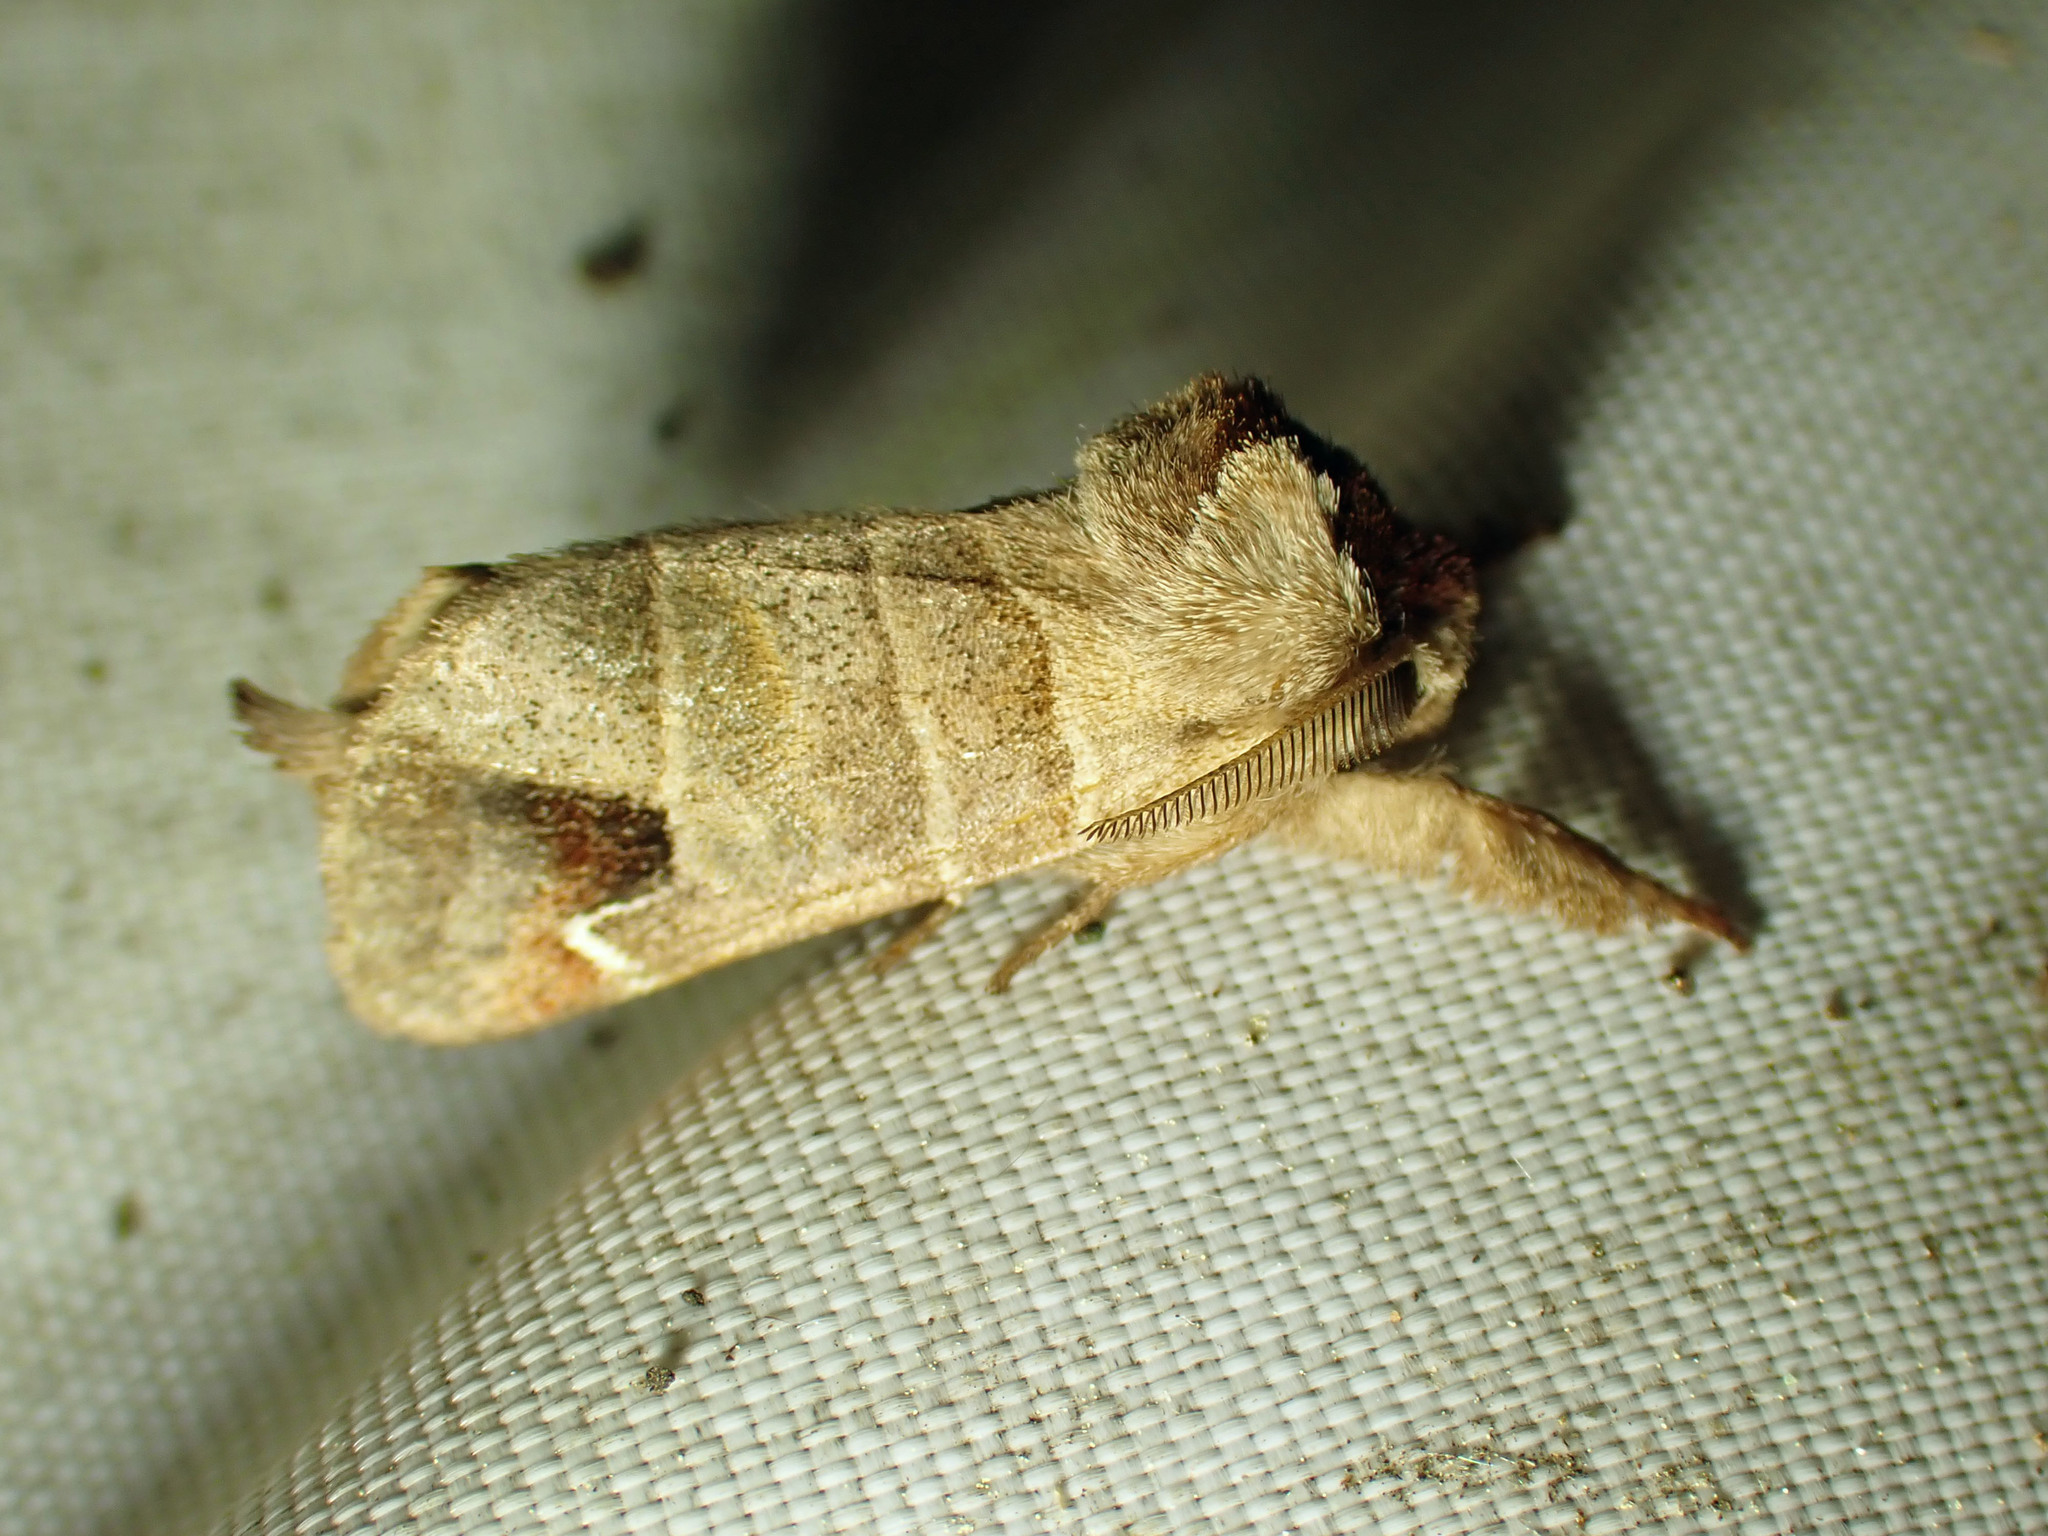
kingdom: Animalia
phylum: Arthropoda
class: Insecta
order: Lepidoptera
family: Notodontidae
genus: Clostera
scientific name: Clostera albosigma
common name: Sigmoid prominent
